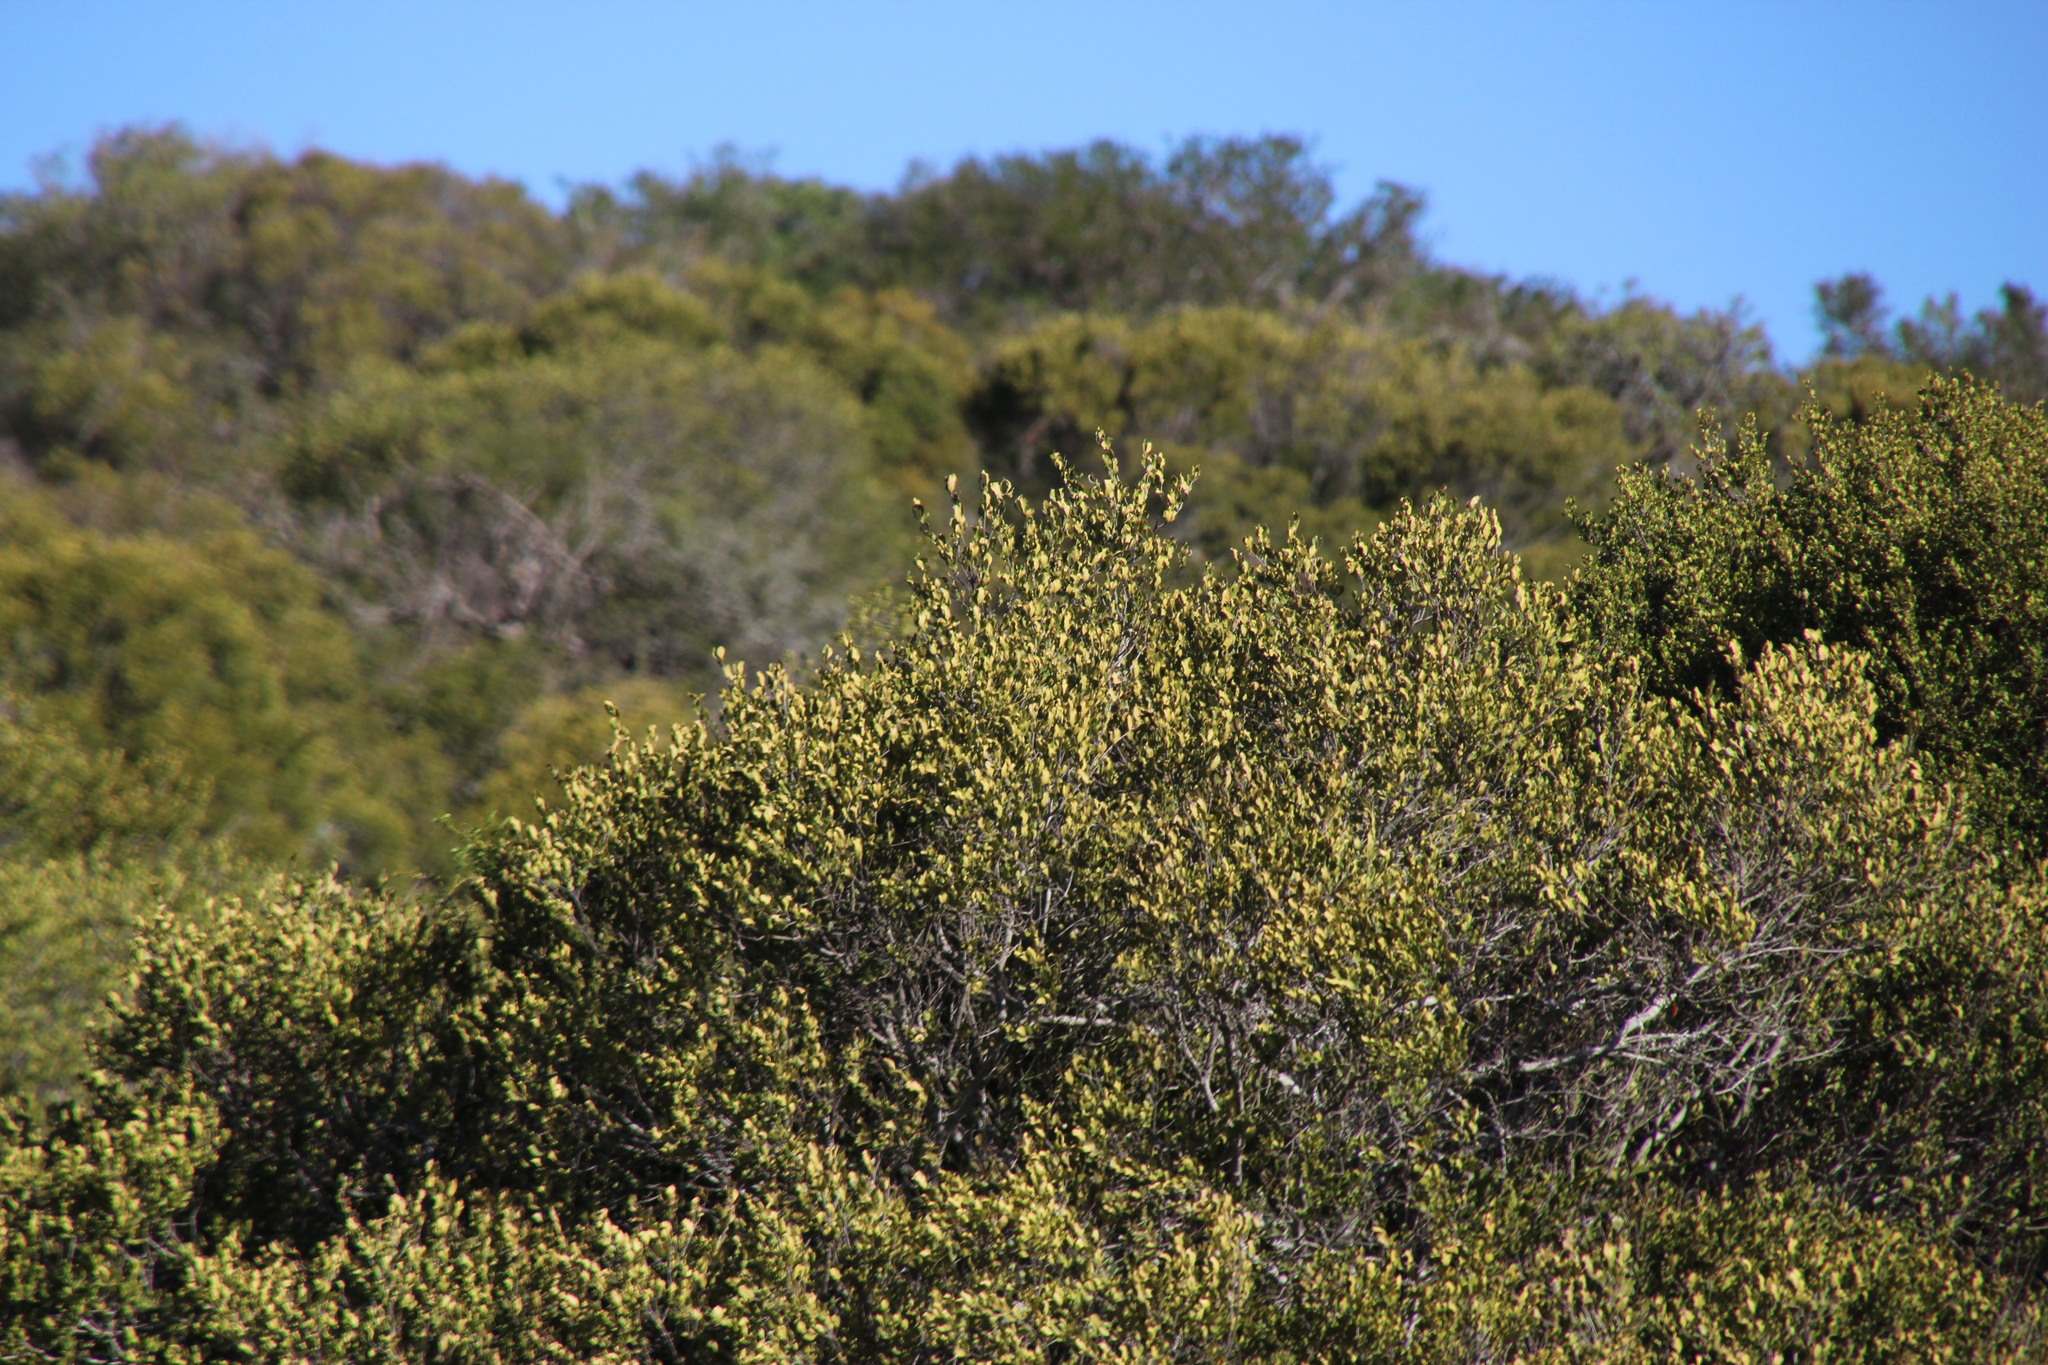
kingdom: Plantae
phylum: Tracheophyta
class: Magnoliopsida
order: Ericales
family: Ebenaceae
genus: Euclea
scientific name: Euclea undulata
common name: Small-leaved guarri
